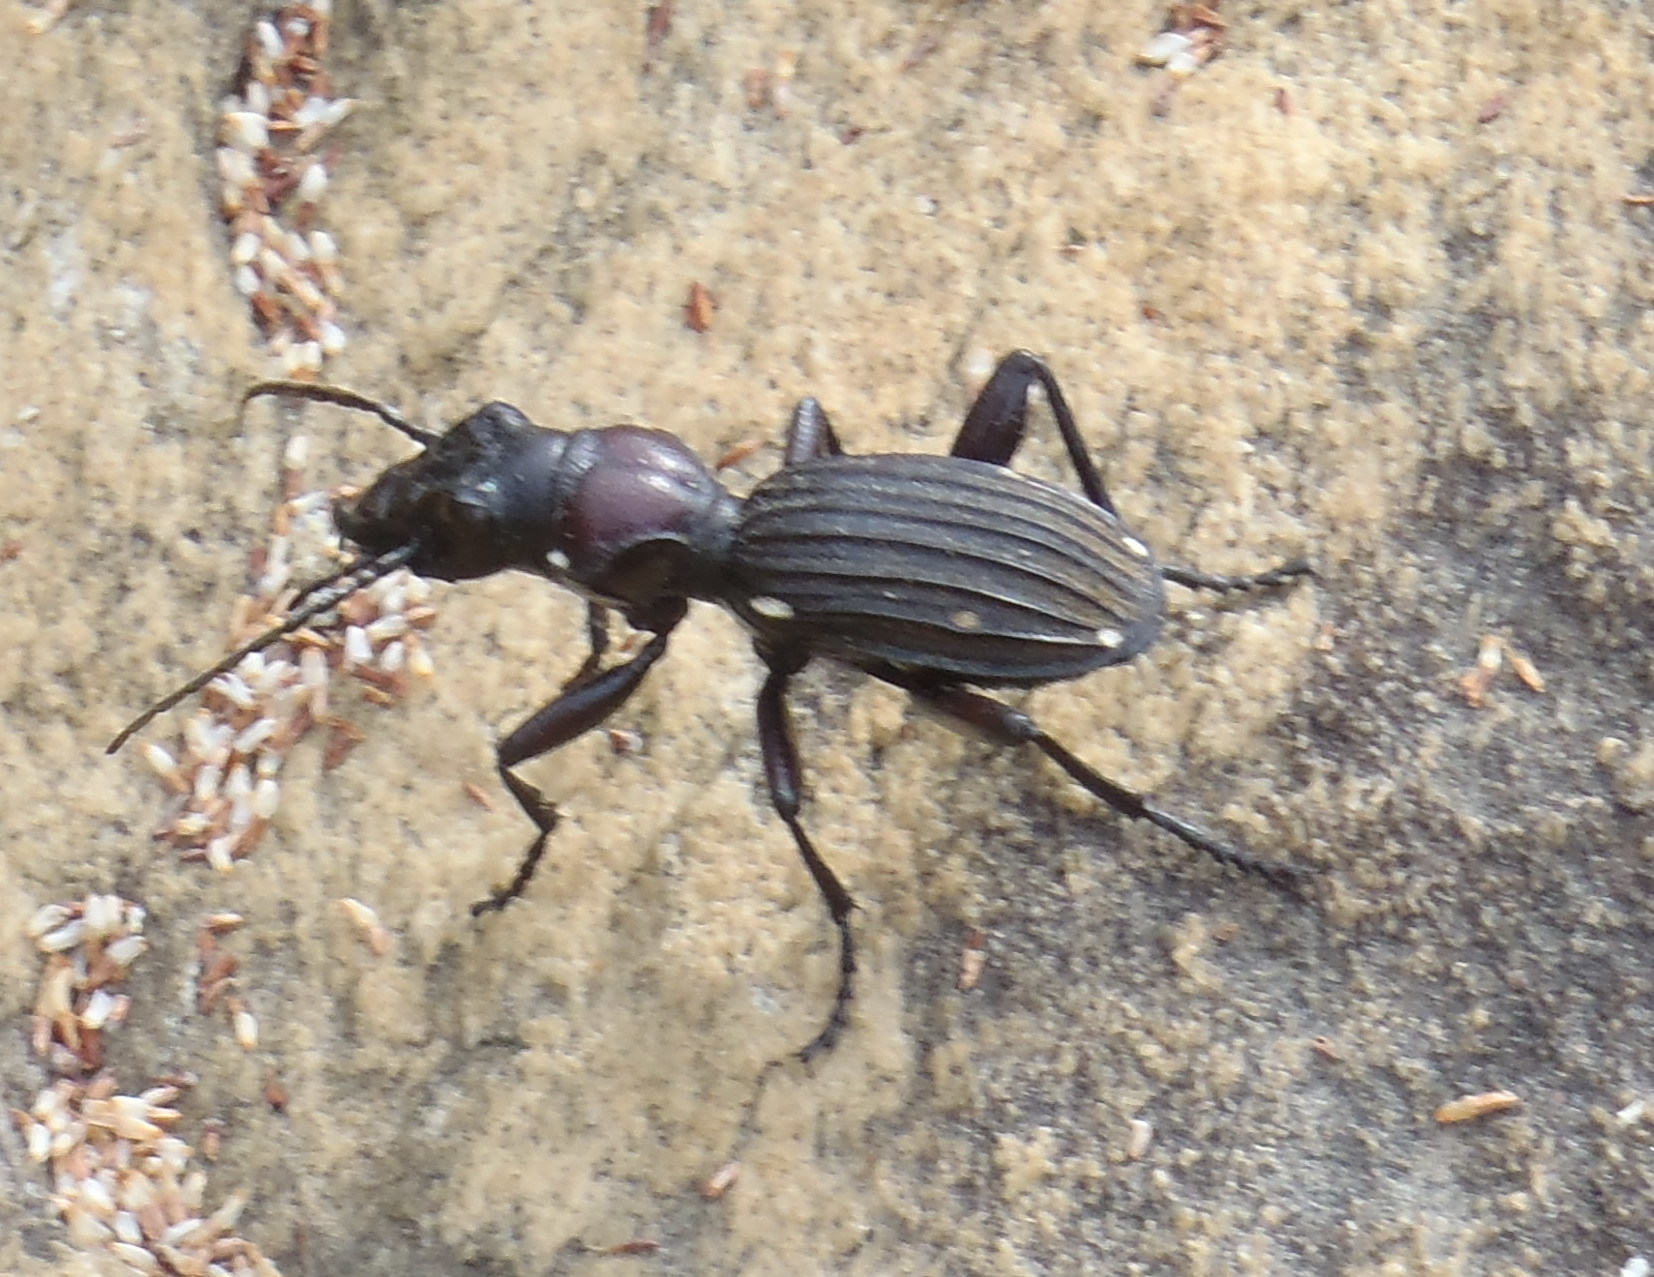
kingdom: Animalia
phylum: Arthropoda
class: Insecta
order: Coleoptera
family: Carabidae
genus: Anthia
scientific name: Anthia decemguttata
